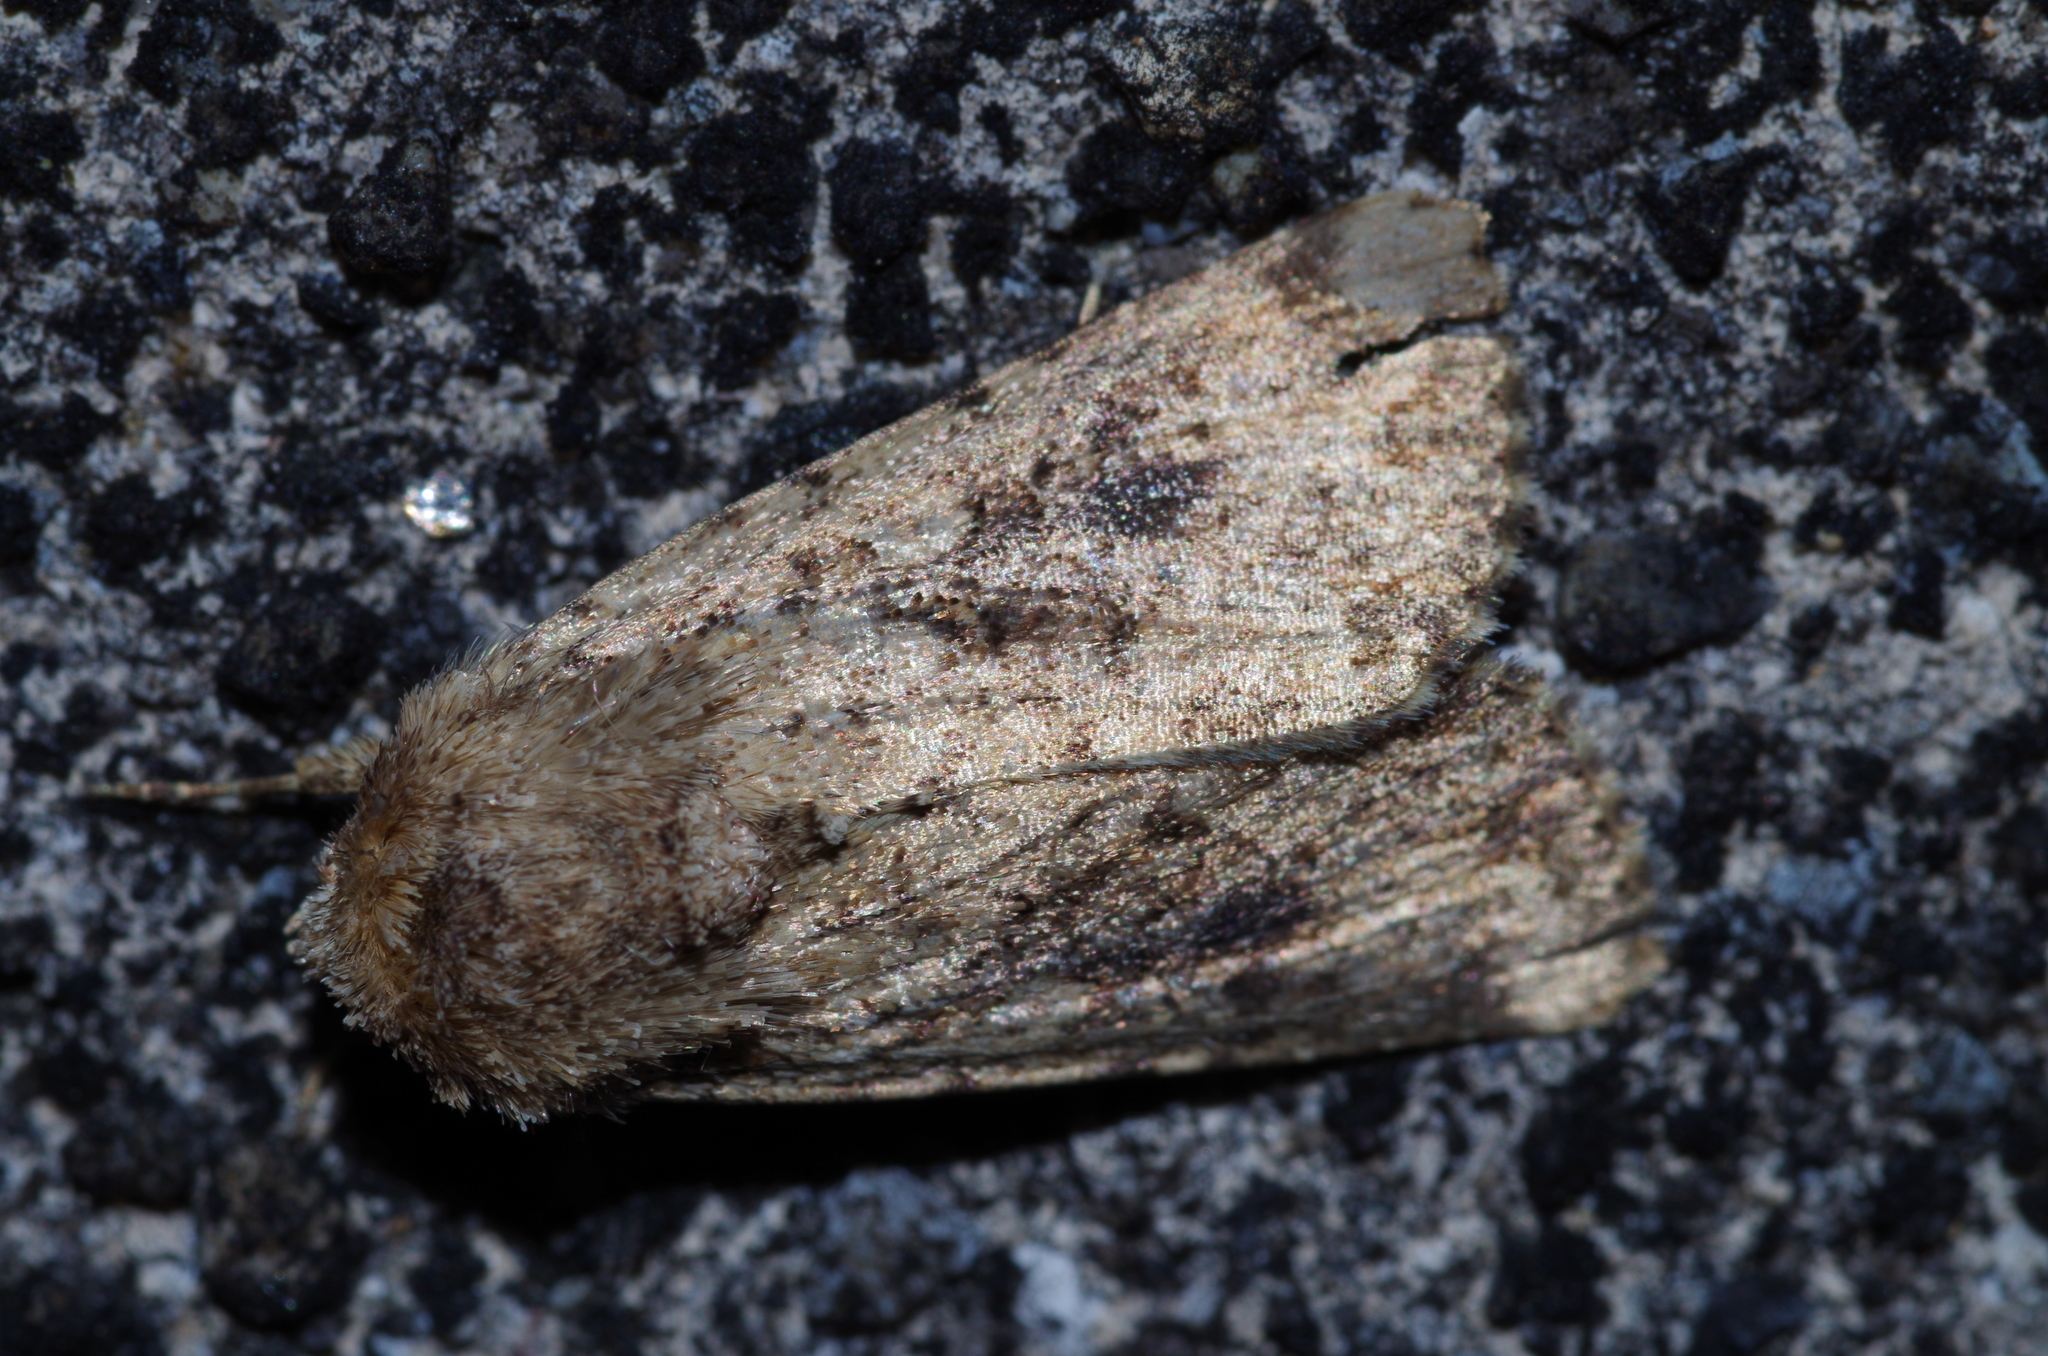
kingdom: Animalia
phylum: Arthropoda
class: Insecta
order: Lepidoptera
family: Noctuidae
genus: Mythimna
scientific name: Mythimna stolida
